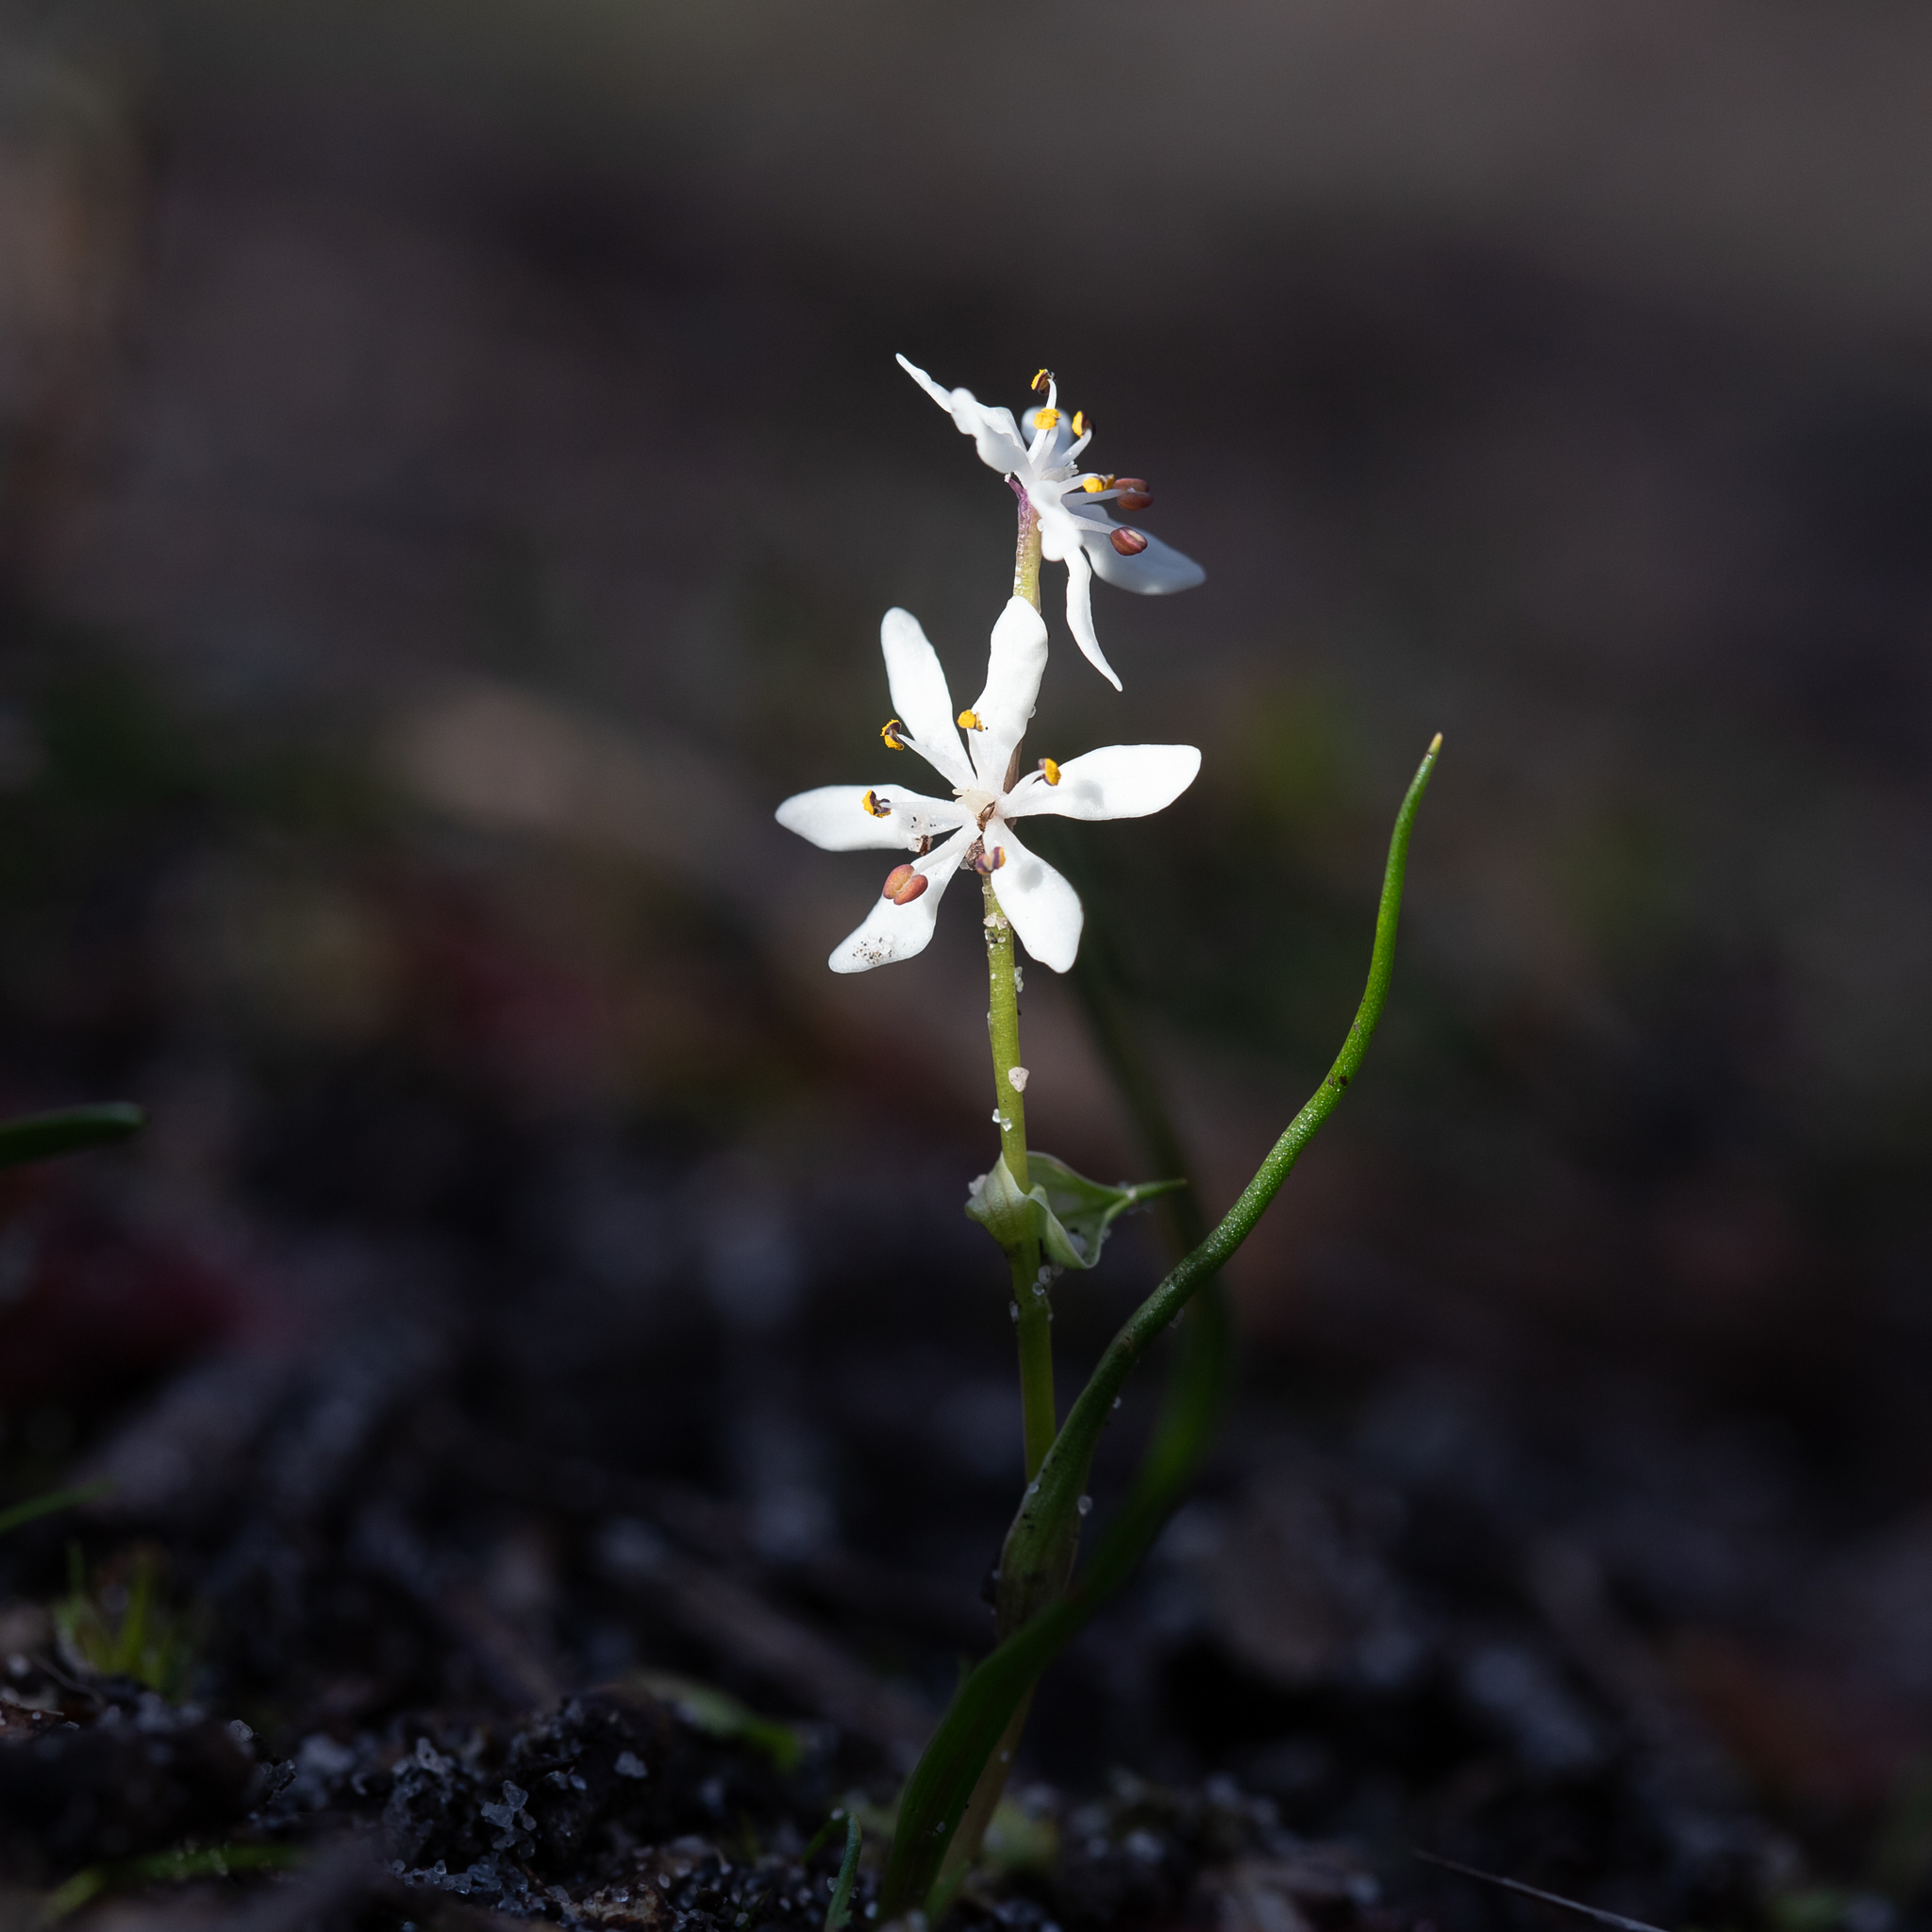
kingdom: Plantae
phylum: Tracheophyta
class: Liliopsida
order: Liliales
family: Colchicaceae
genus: Wurmbea
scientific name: Wurmbea dioica
